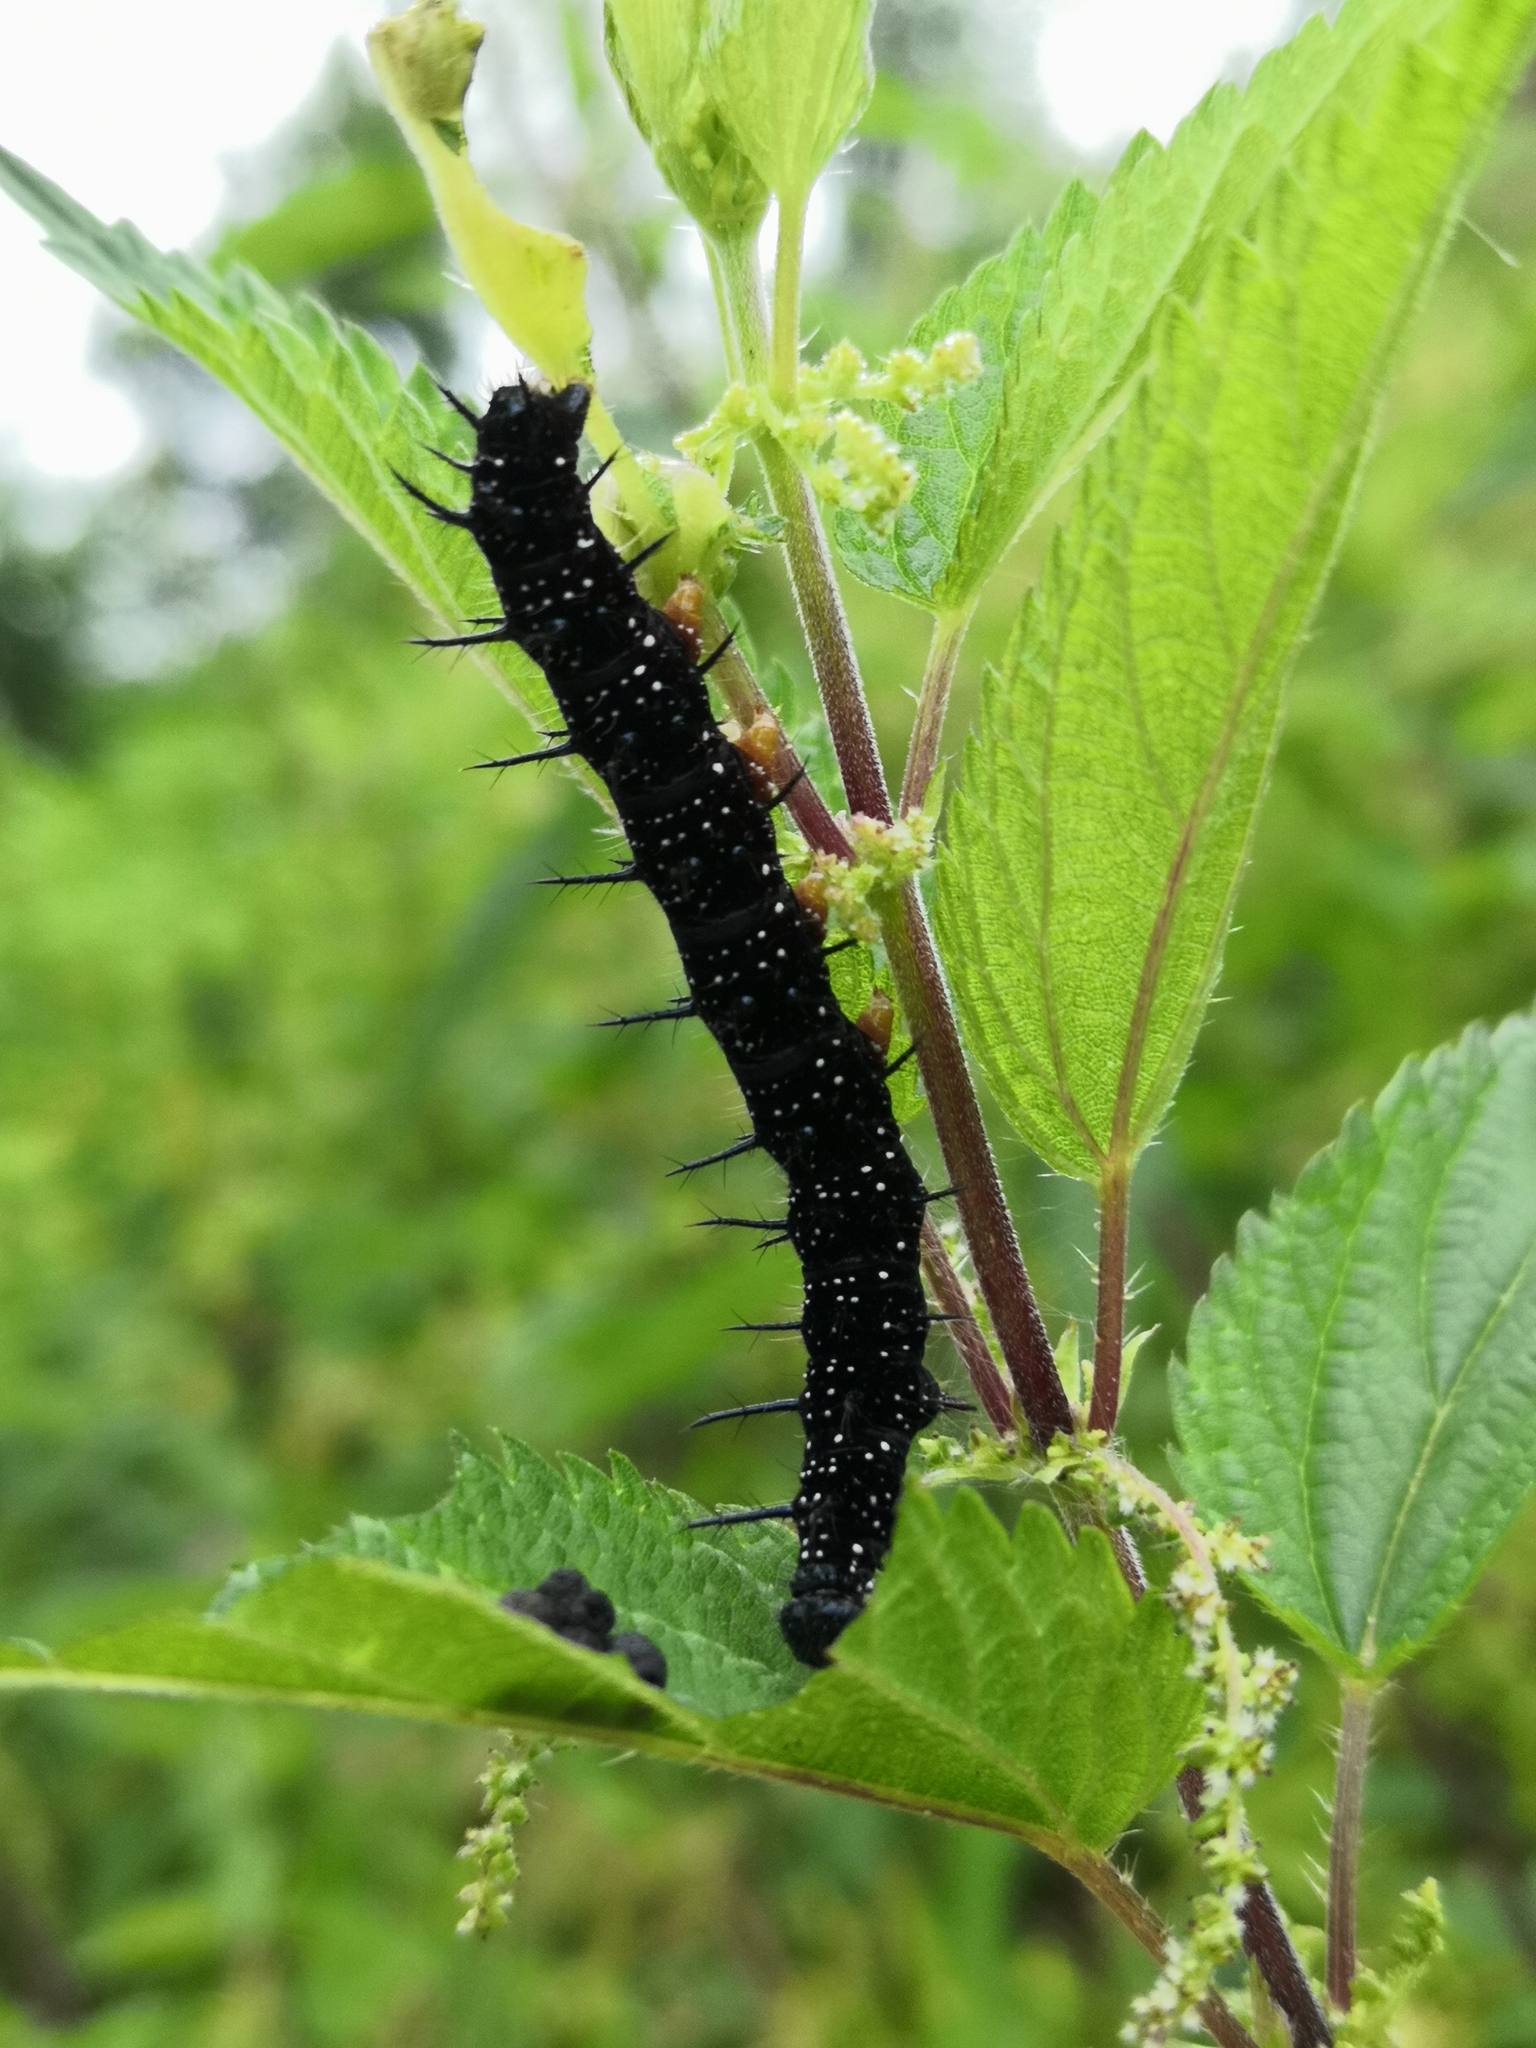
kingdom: Animalia
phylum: Arthropoda
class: Insecta
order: Lepidoptera
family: Nymphalidae
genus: Aglais
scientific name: Aglais io
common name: Peacock
